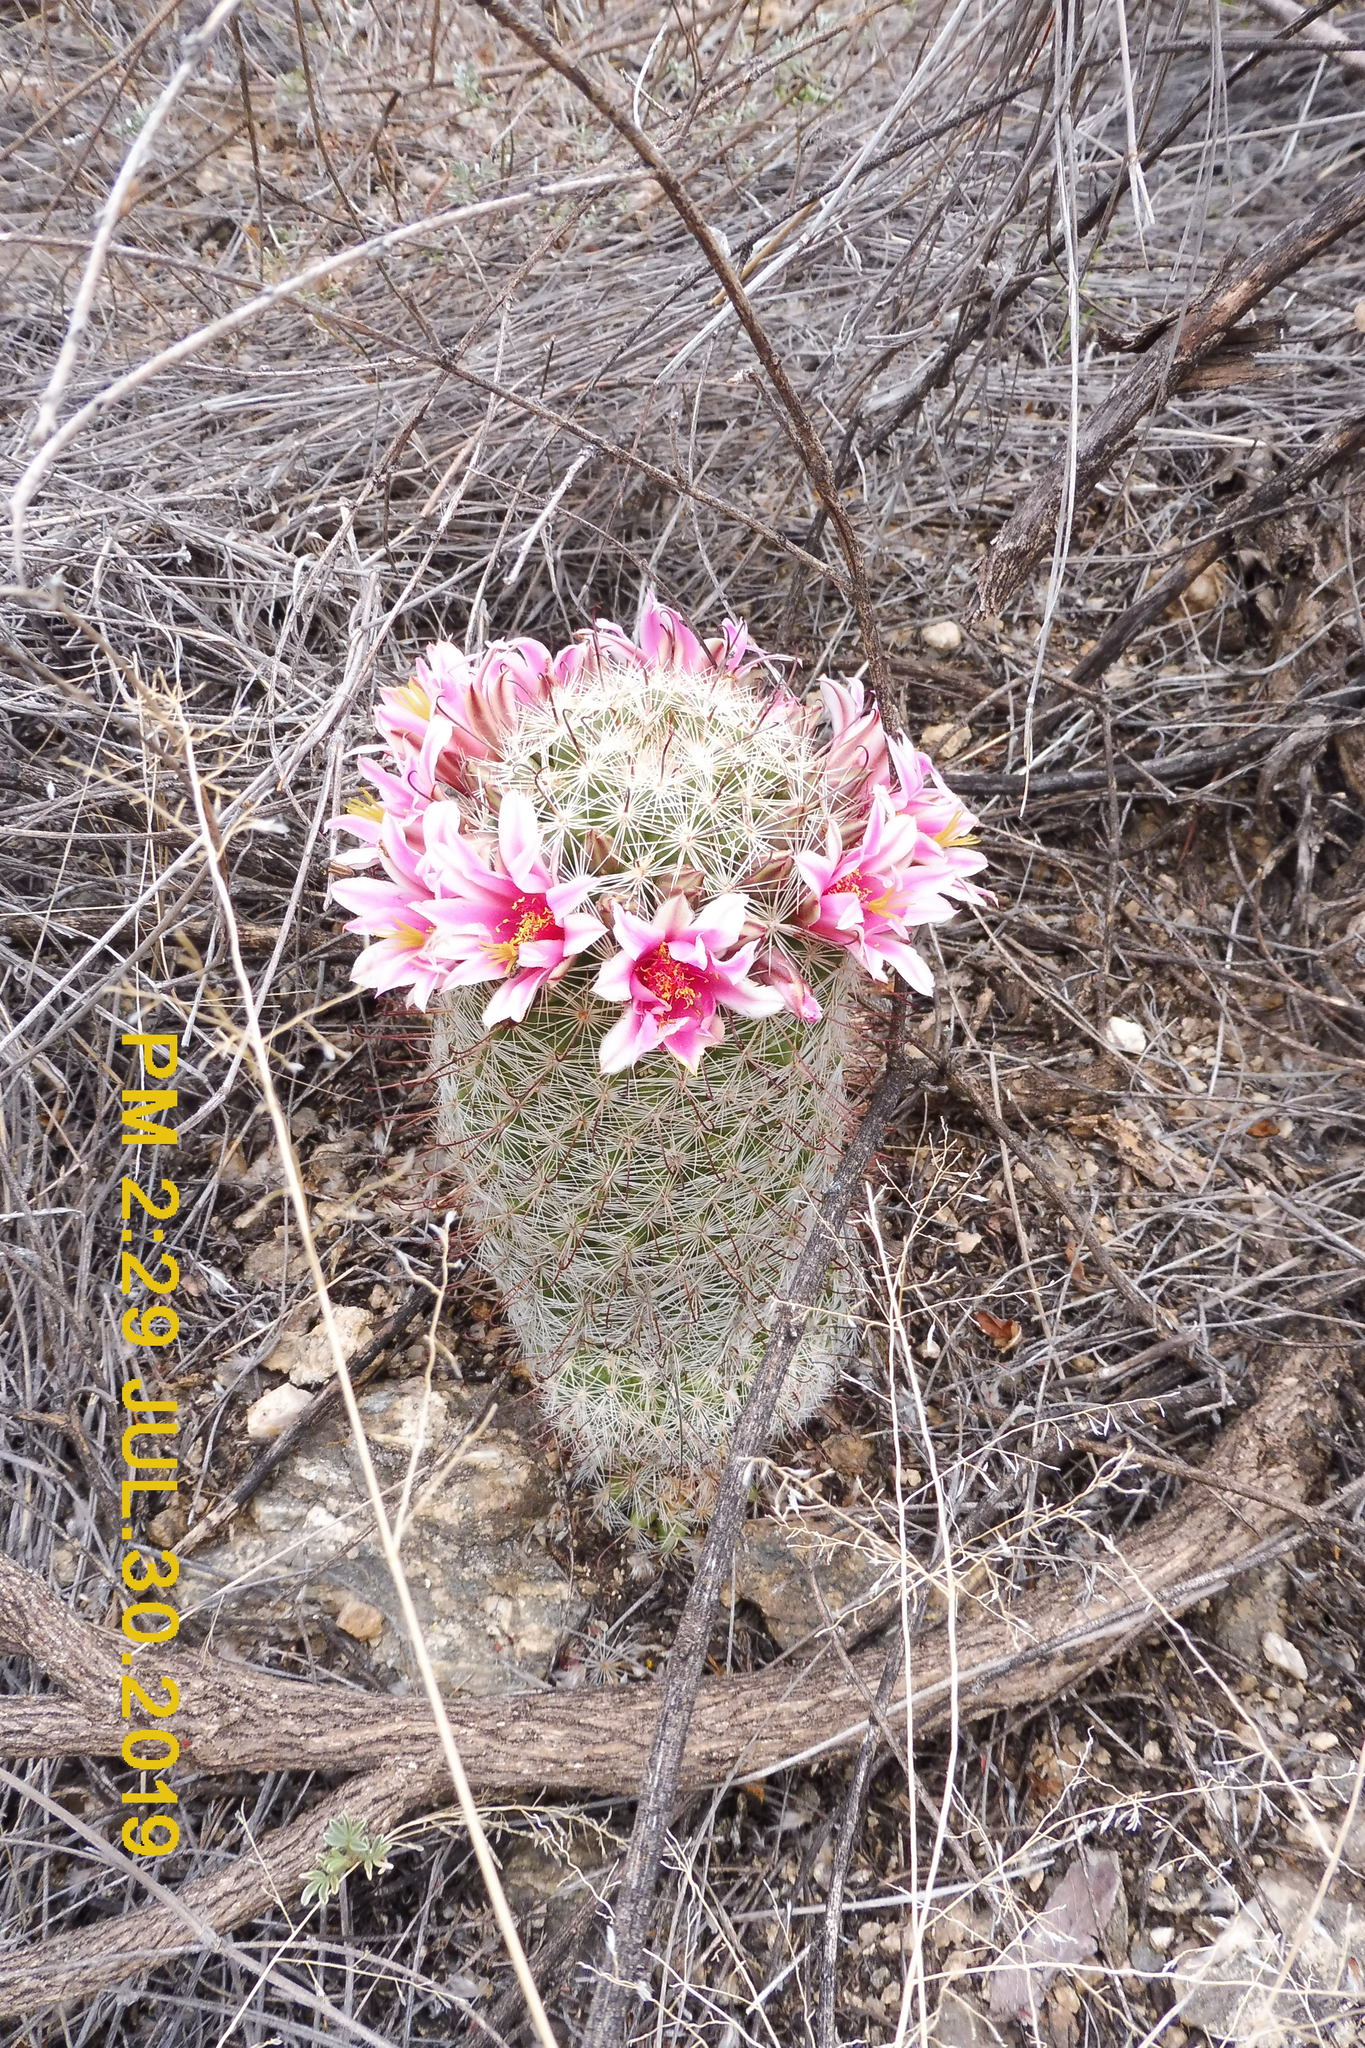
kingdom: Plantae
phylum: Tracheophyta
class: Magnoliopsida
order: Caryophyllales
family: Cactaceae
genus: Cochemiea
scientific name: Cochemiea grahamii
